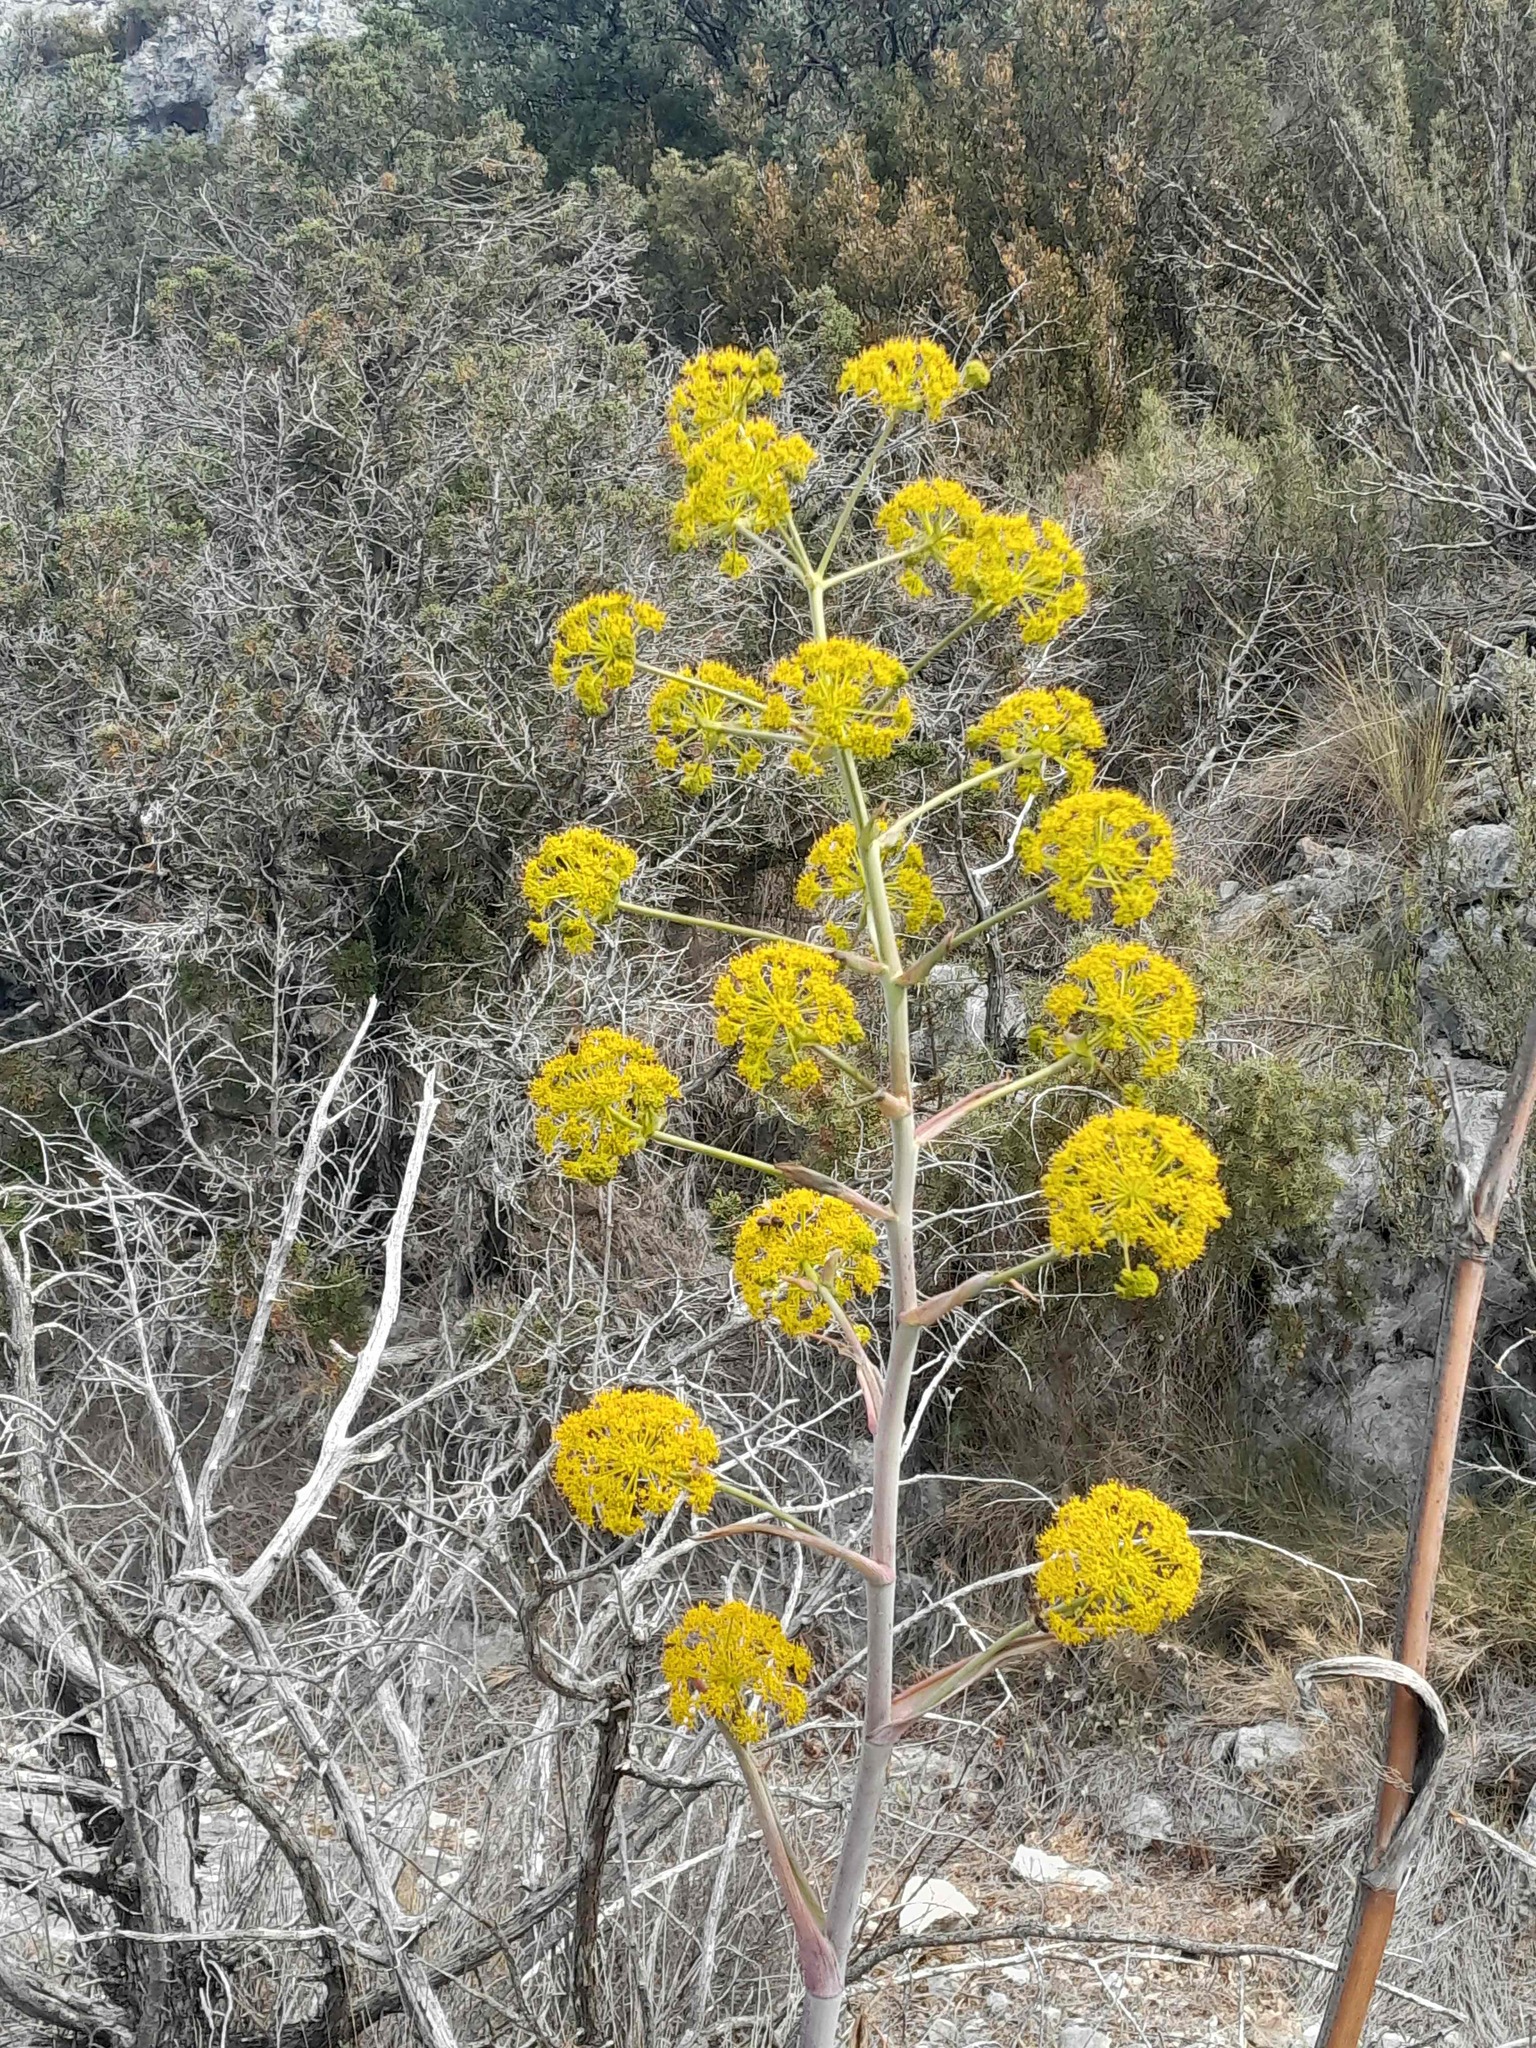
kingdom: Plantae
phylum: Tracheophyta
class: Magnoliopsida
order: Apiales
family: Apiaceae
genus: Ferula
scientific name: Ferula communis
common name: Giant fennel
